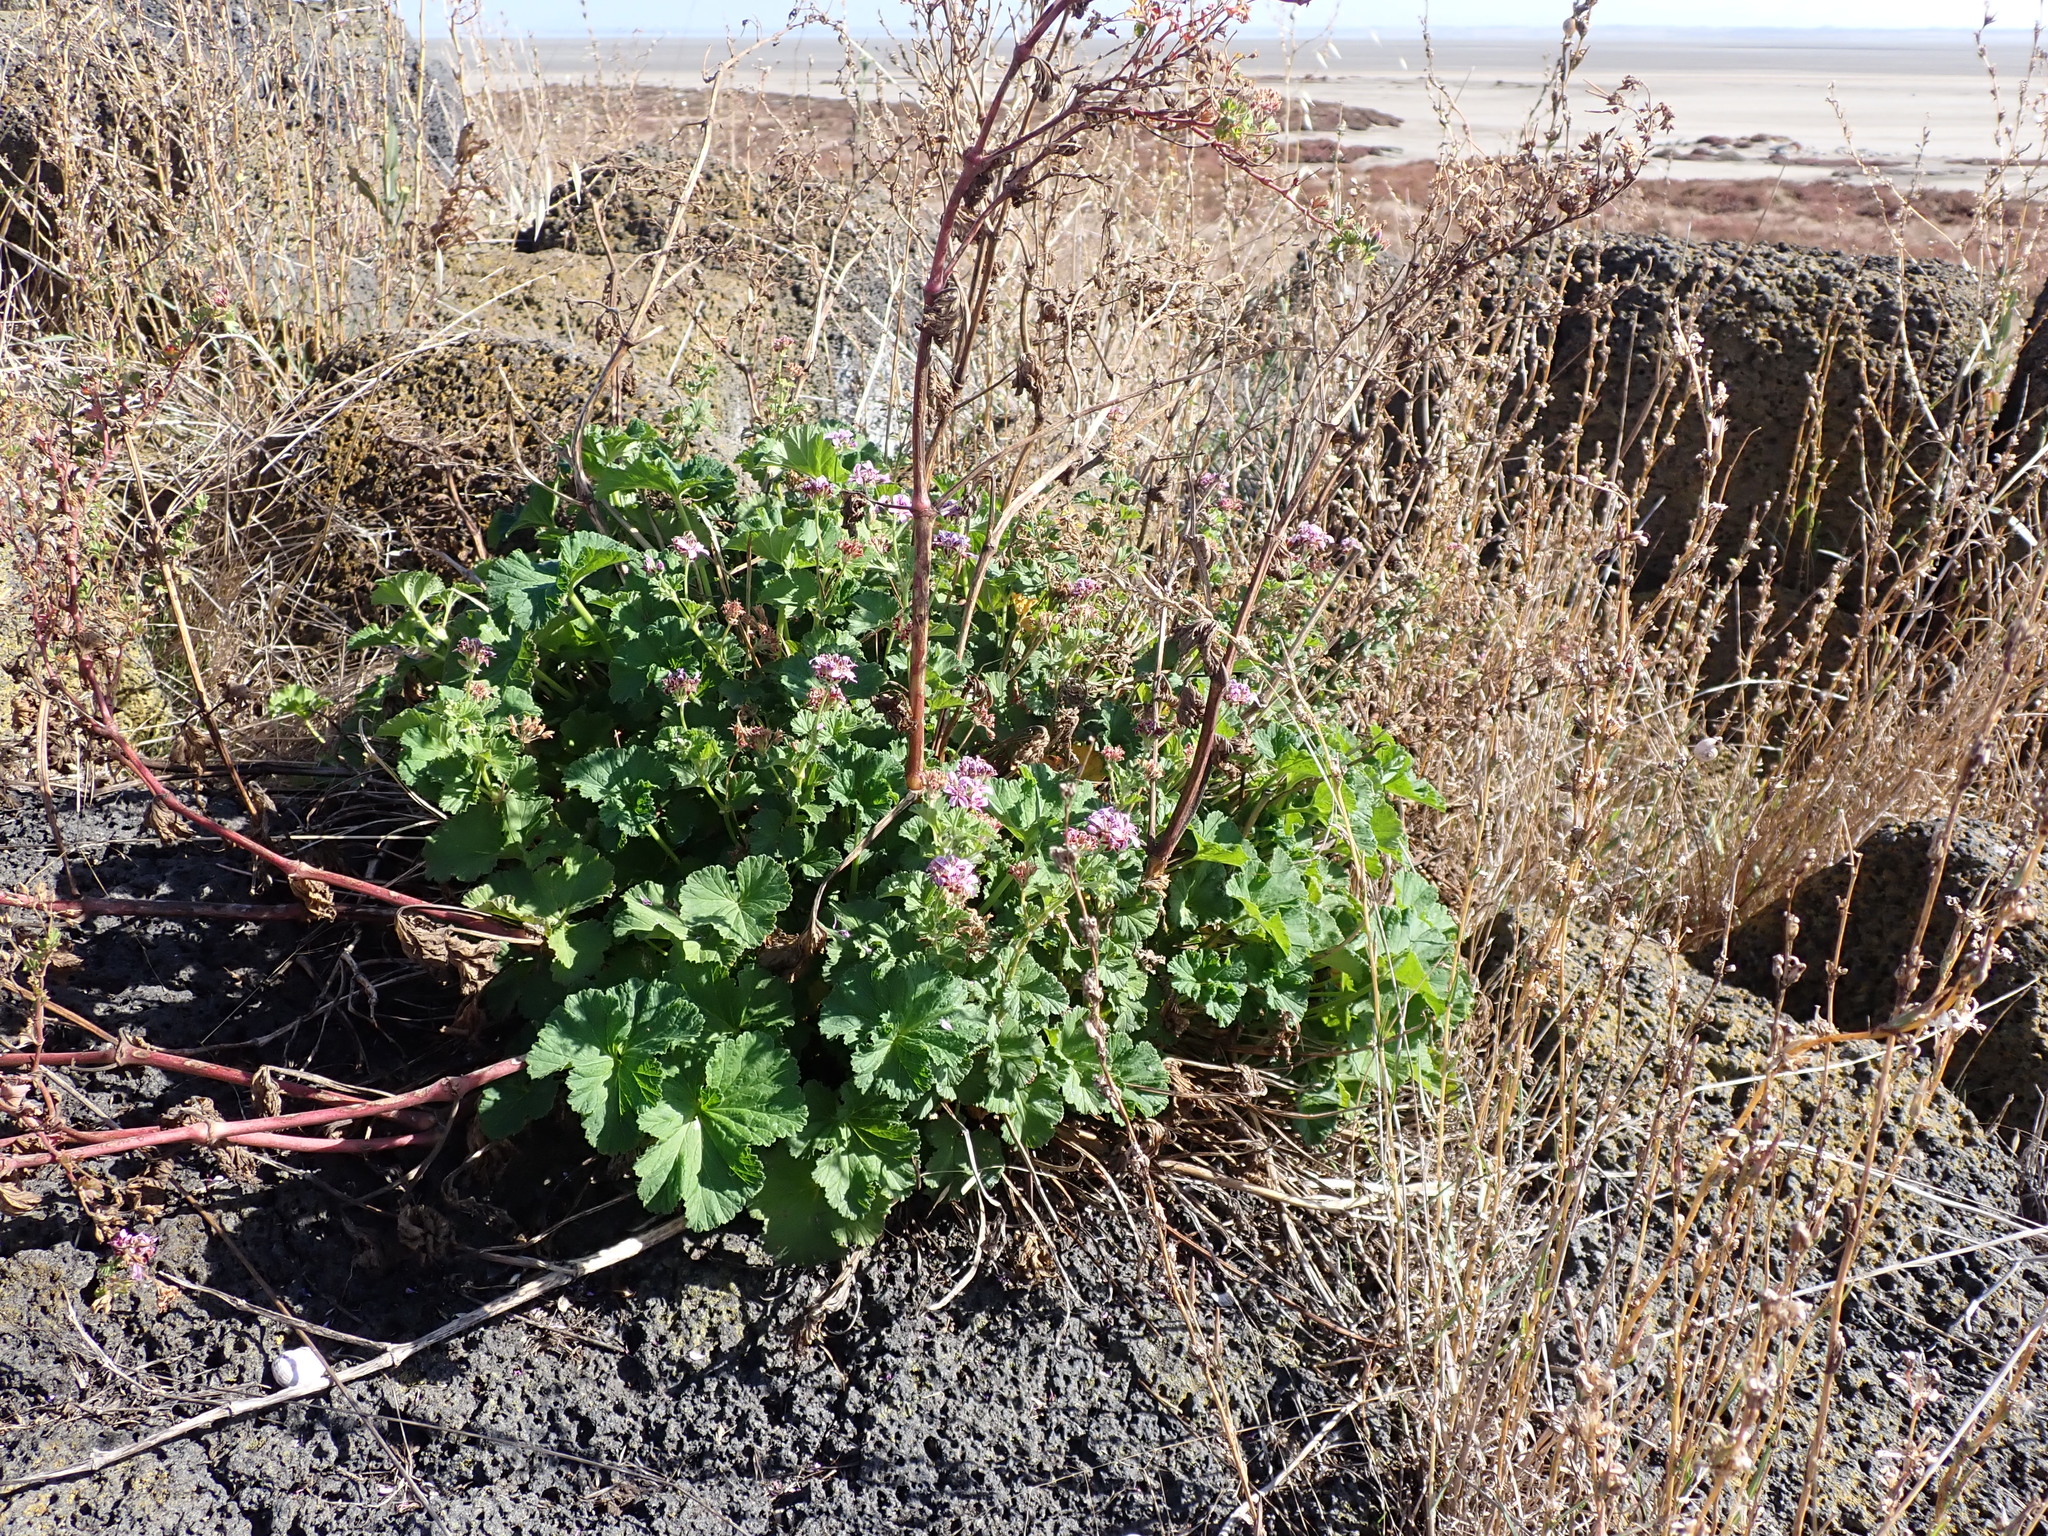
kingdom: Plantae
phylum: Tracheophyta
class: Magnoliopsida
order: Geraniales
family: Geraniaceae
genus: Pelargonium
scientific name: Pelargonium australe
